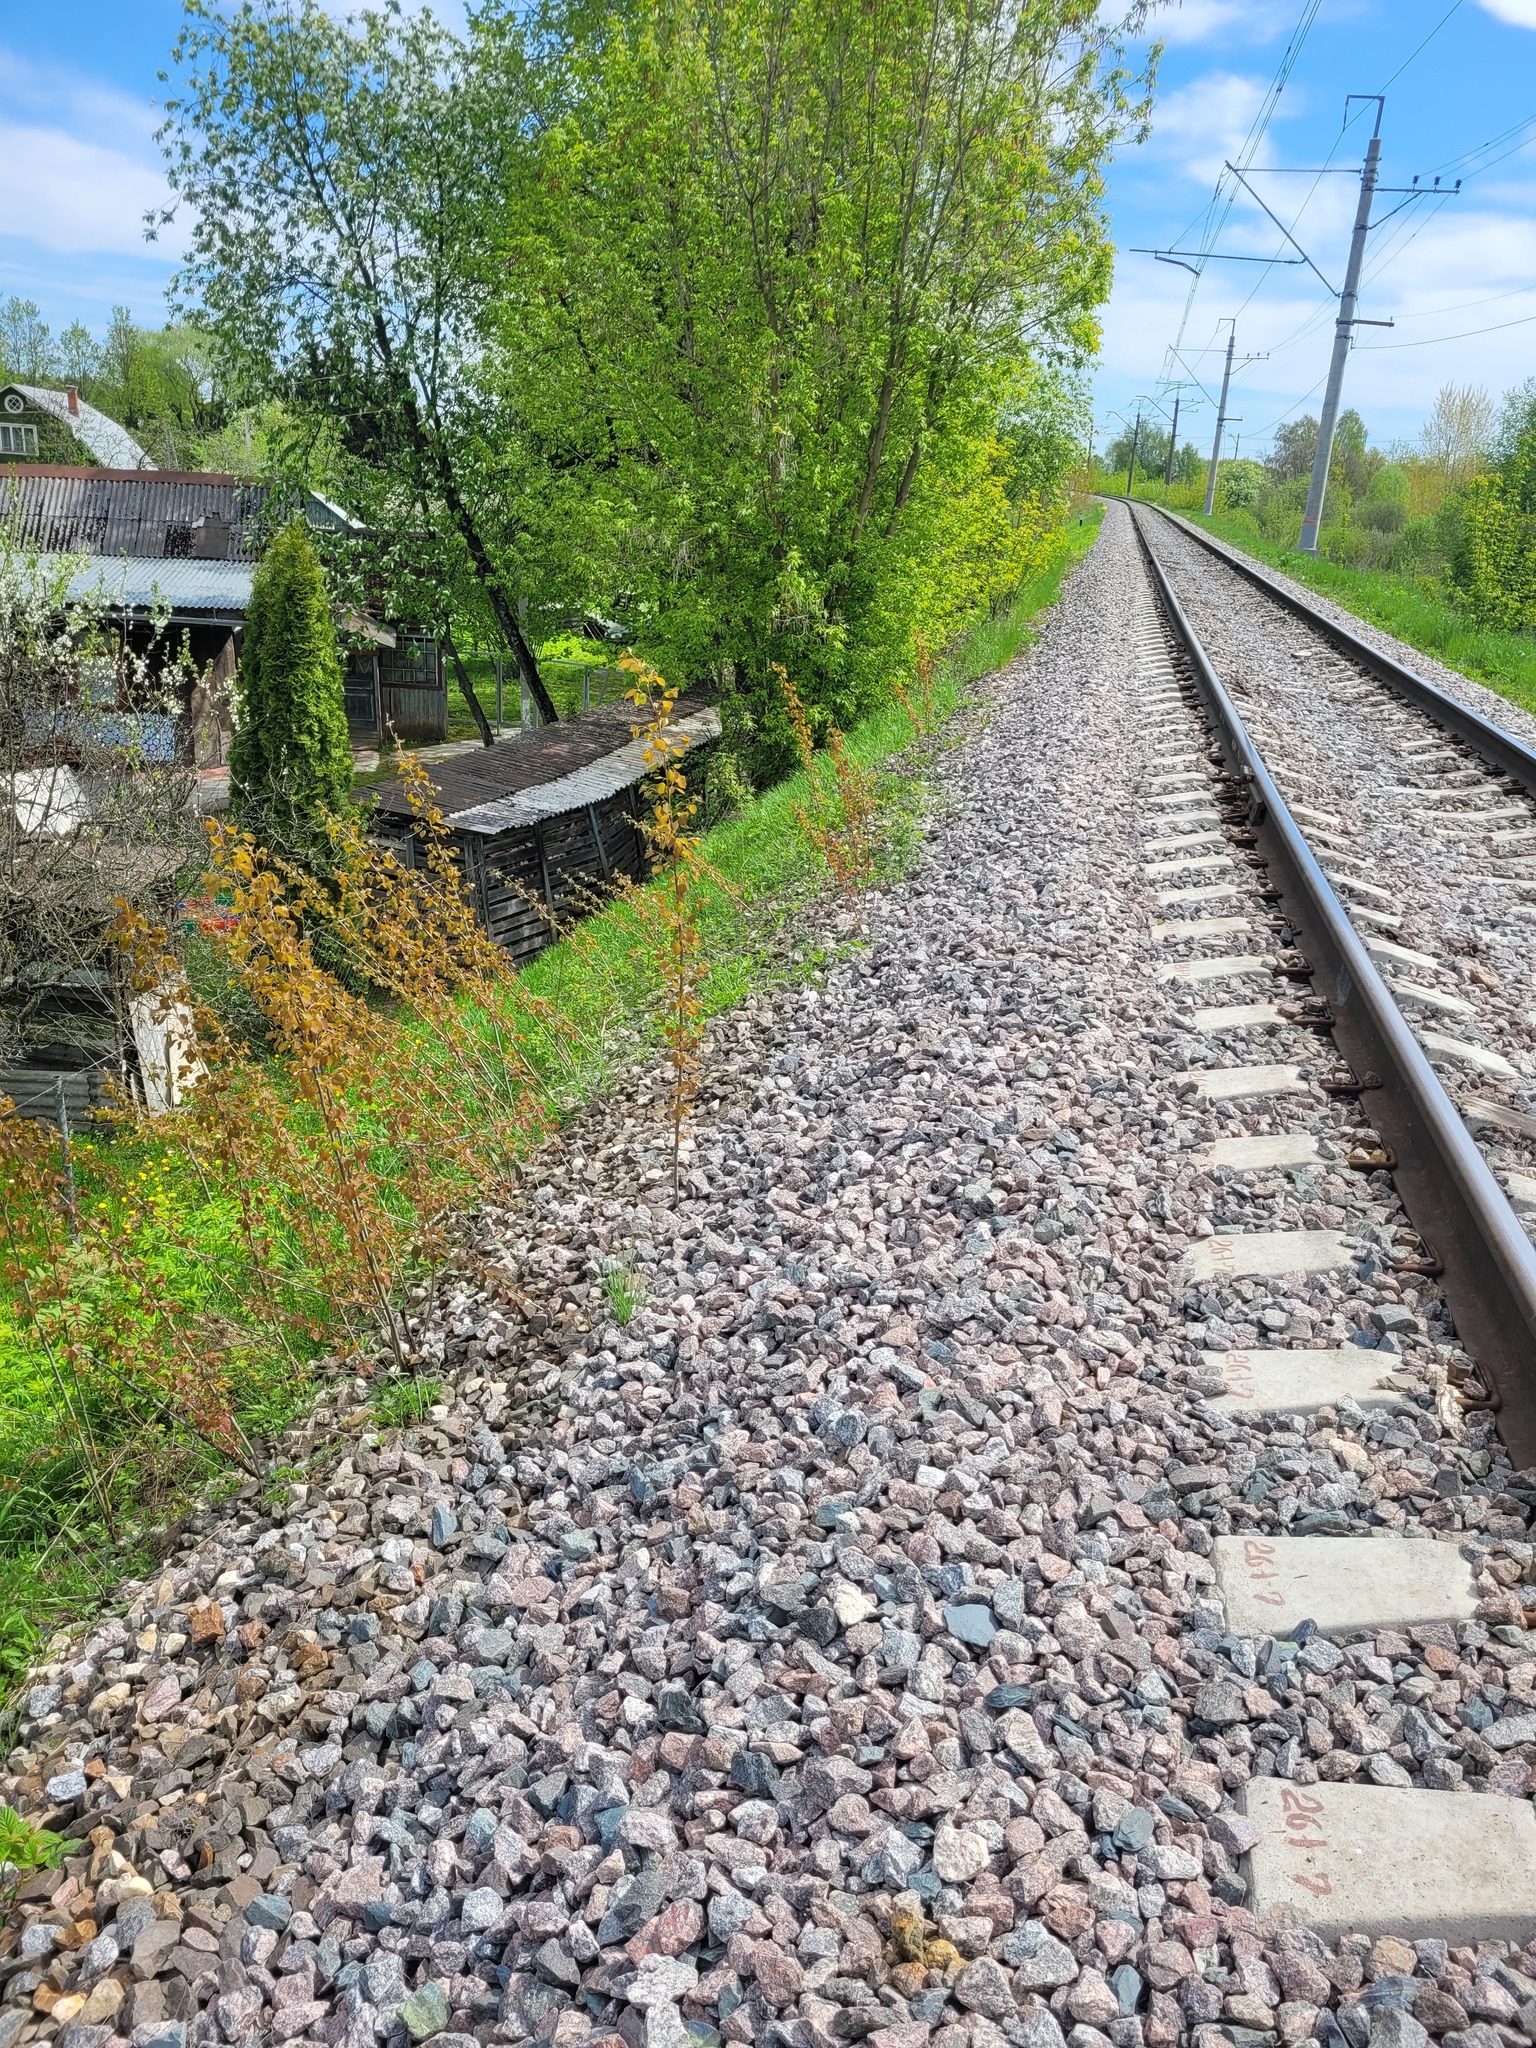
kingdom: Plantae
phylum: Tracheophyta
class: Magnoliopsida
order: Malpighiales
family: Salicaceae
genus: Populus
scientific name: Populus tremula
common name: European aspen
